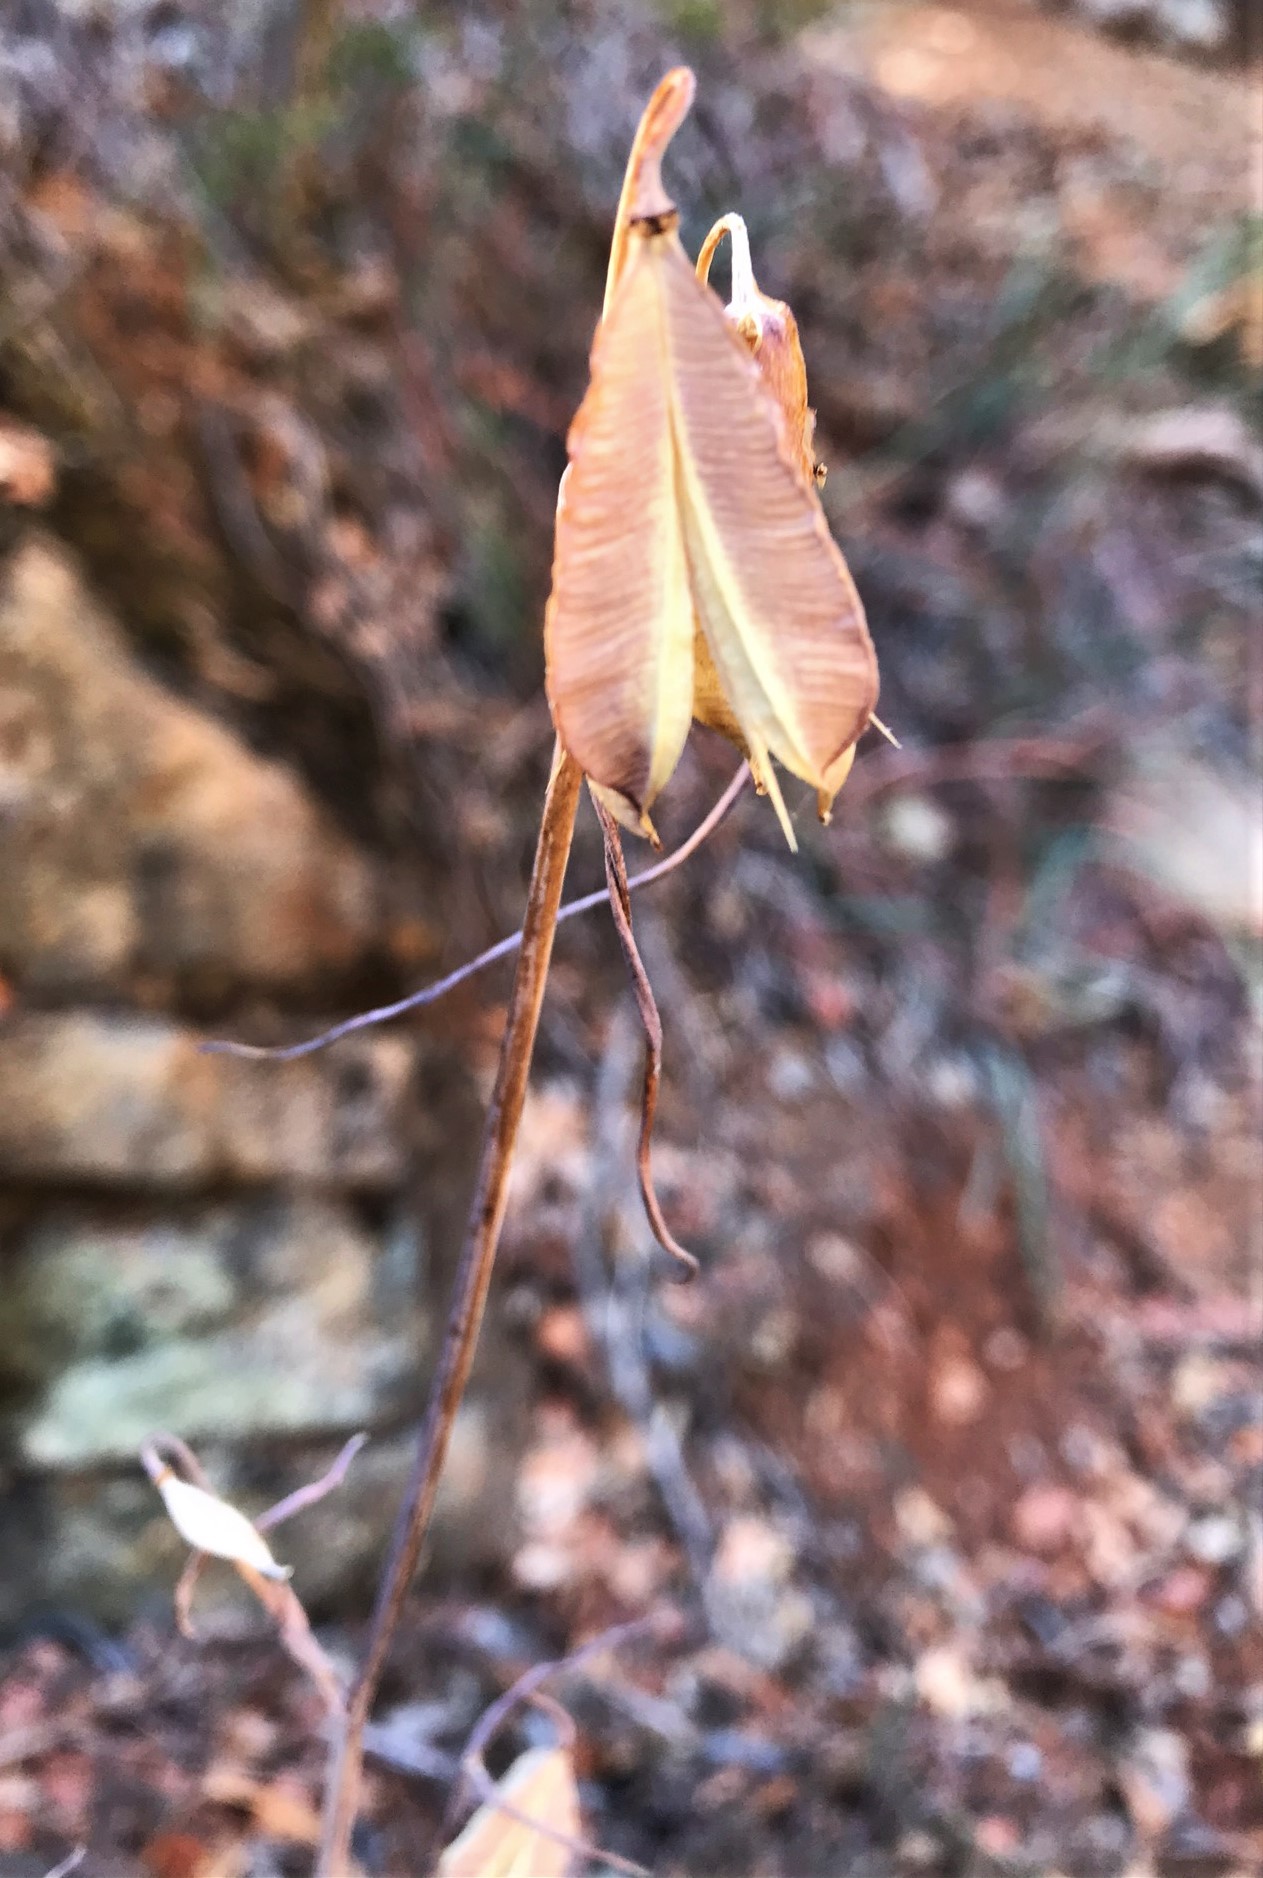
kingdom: Plantae
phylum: Tracheophyta
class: Liliopsida
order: Liliales
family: Liliaceae
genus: Calochortus
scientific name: Calochortus raichei
